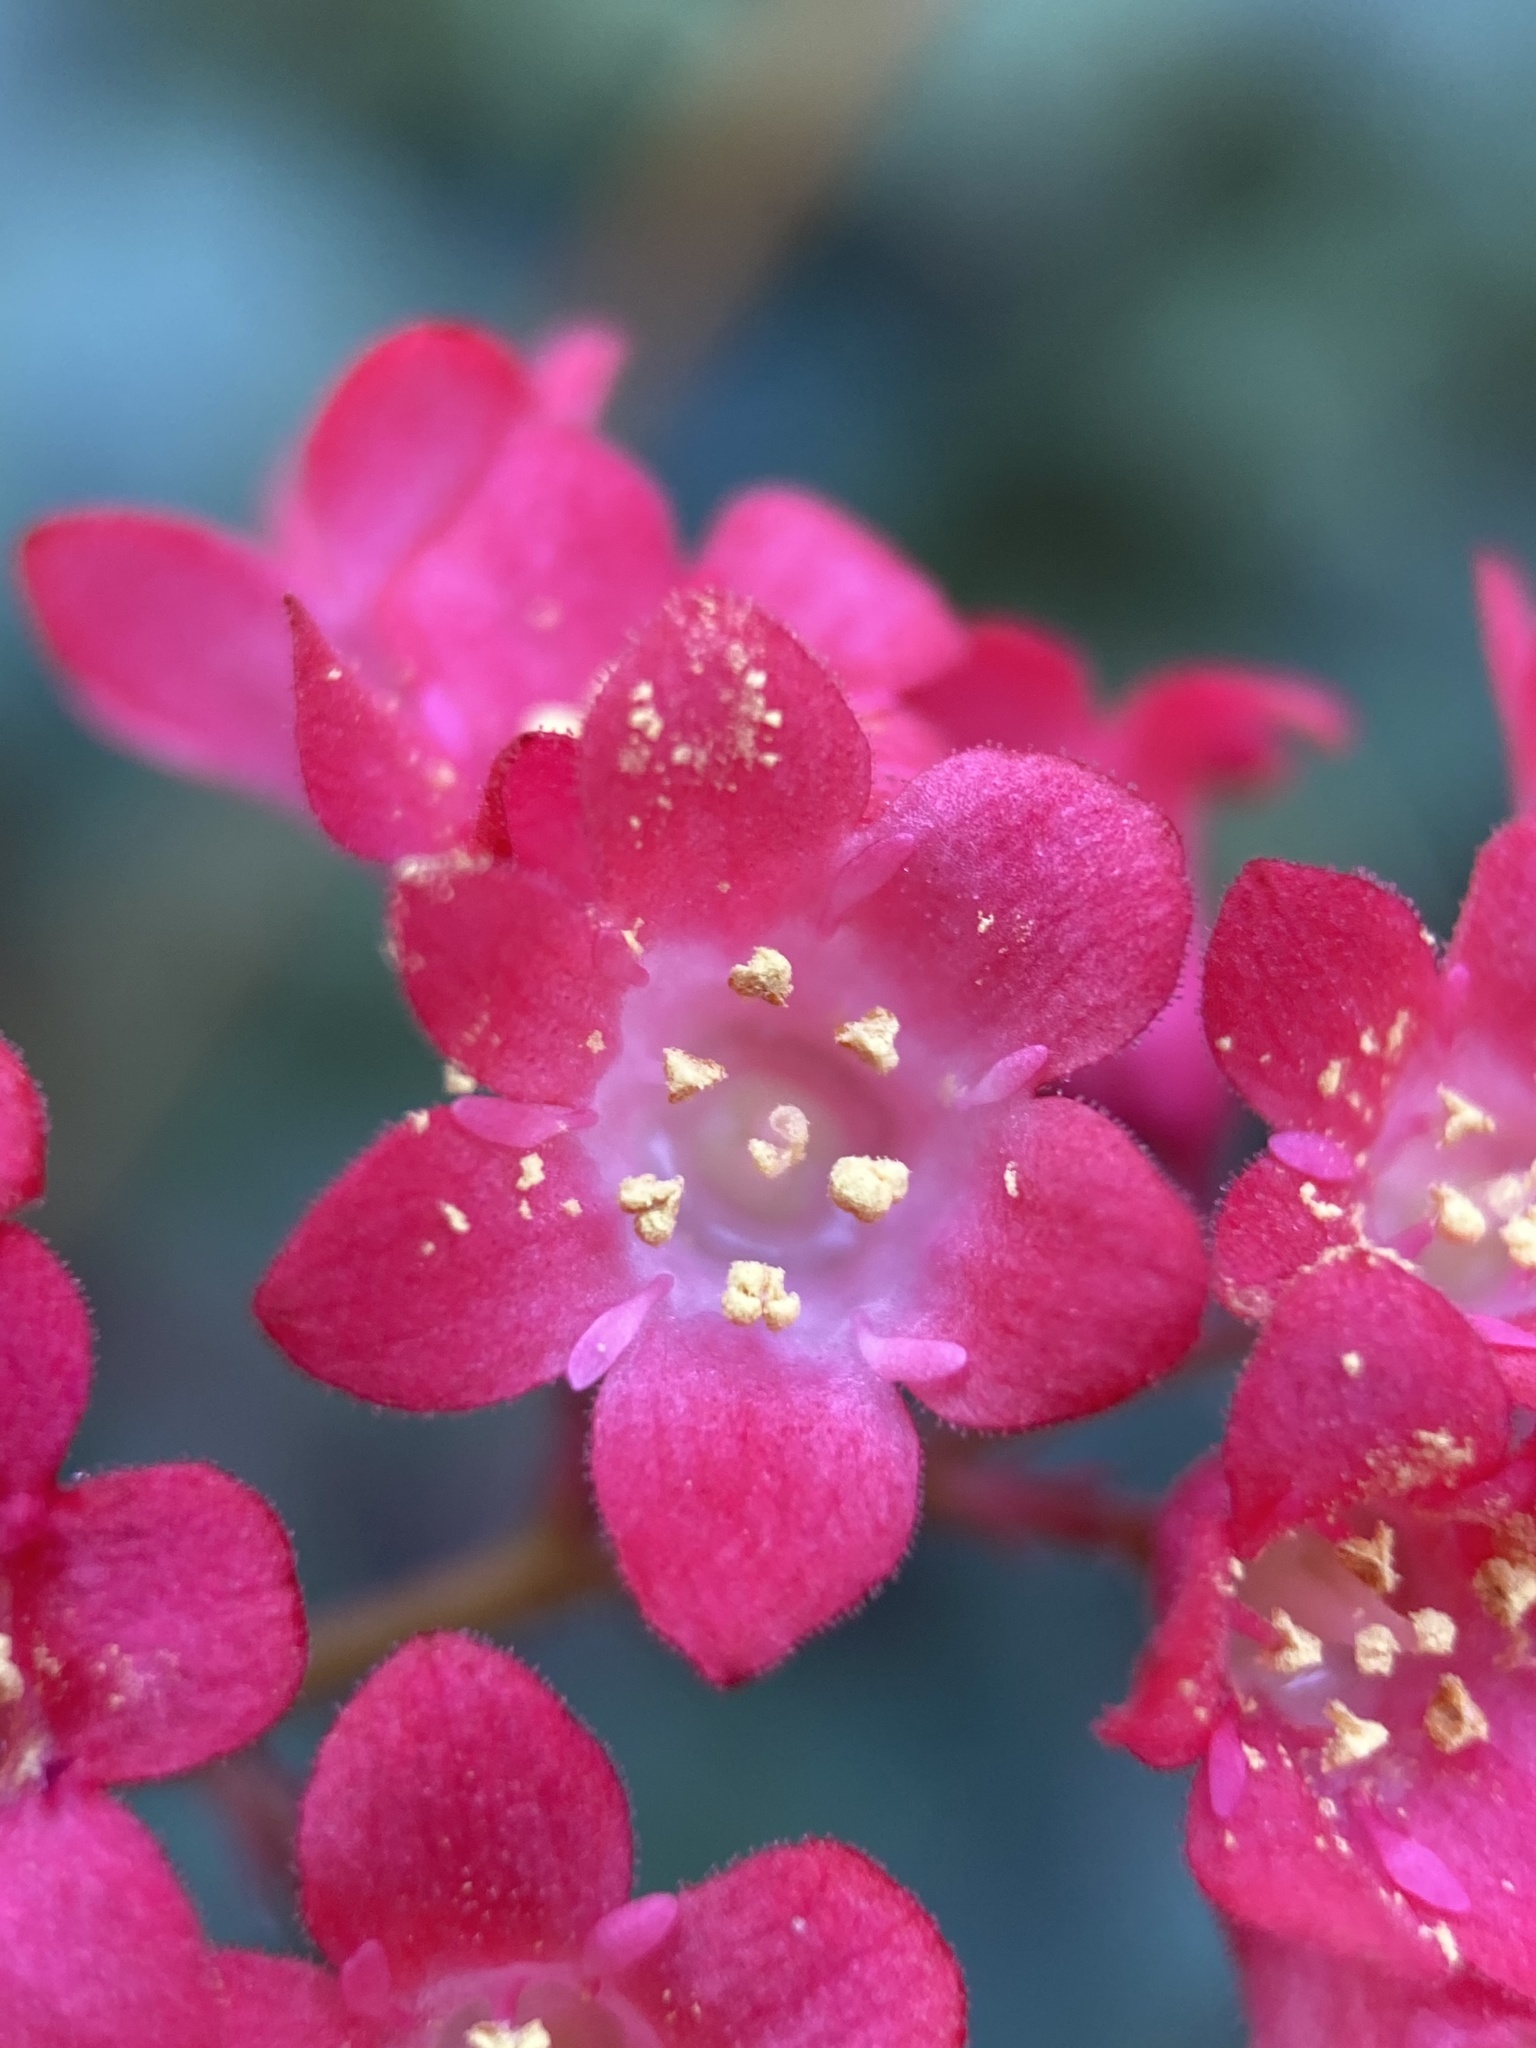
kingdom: Plantae
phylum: Tracheophyta
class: Magnoliopsida
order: Saxifragales
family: Saxifragaceae
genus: Heuchera
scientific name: Heuchera sanguinea
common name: Coralbells
